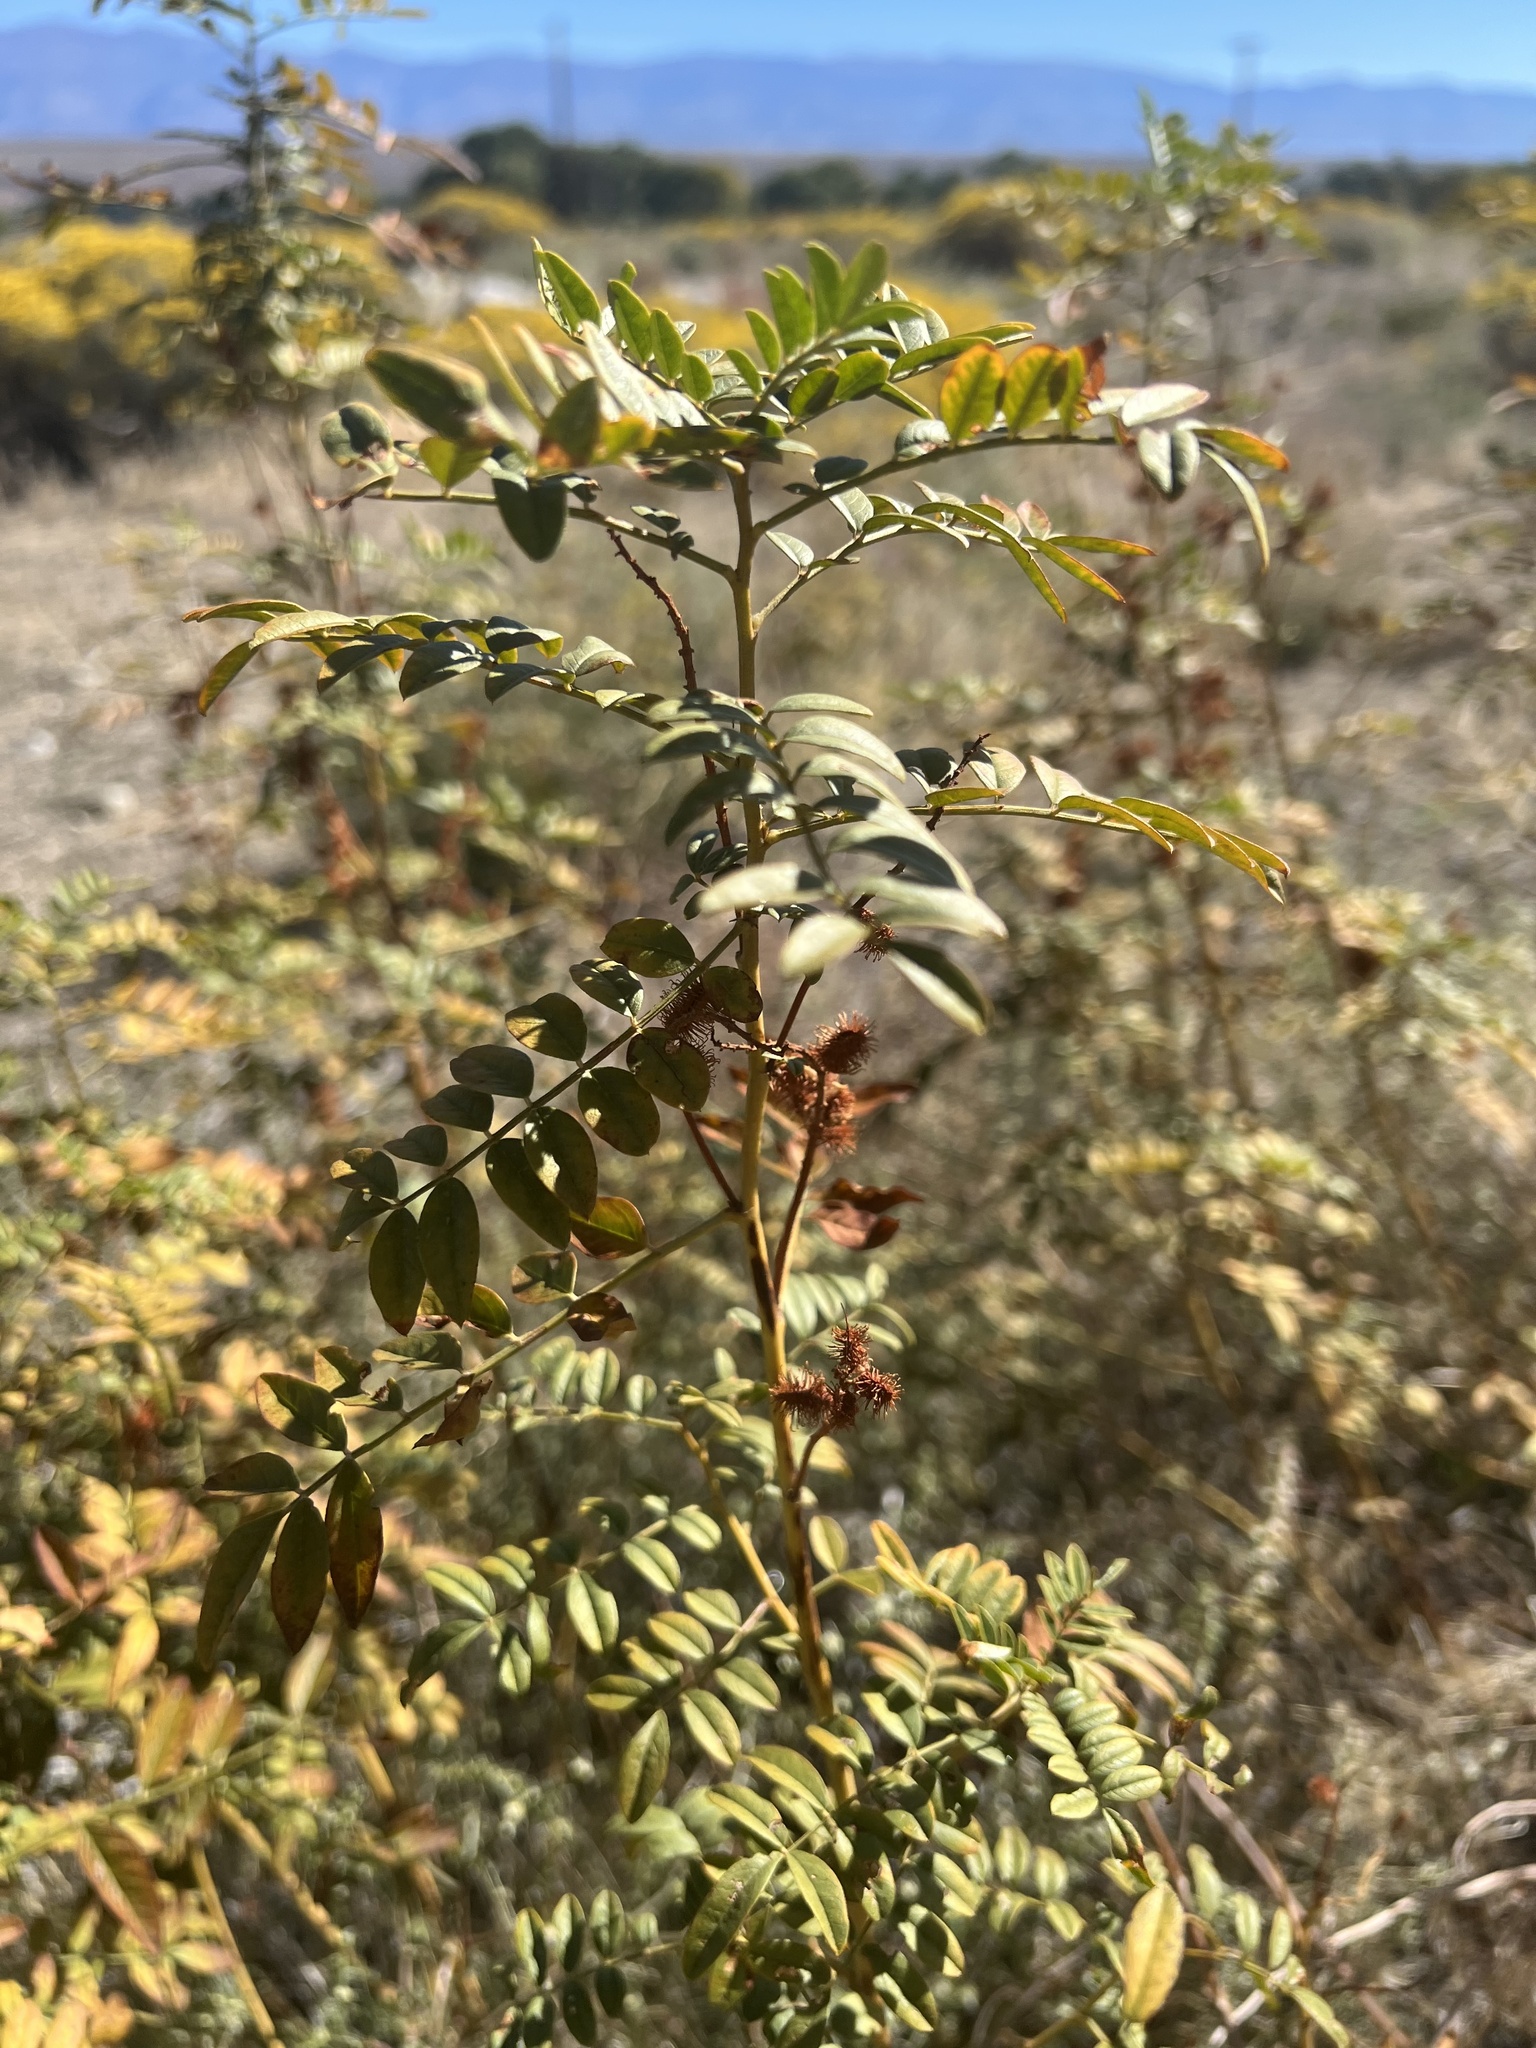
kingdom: Plantae
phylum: Tracheophyta
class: Magnoliopsida
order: Fabales
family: Fabaceae
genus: Glycyrrhiza
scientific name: Glycyrrhiza lepidota
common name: American liquorice
